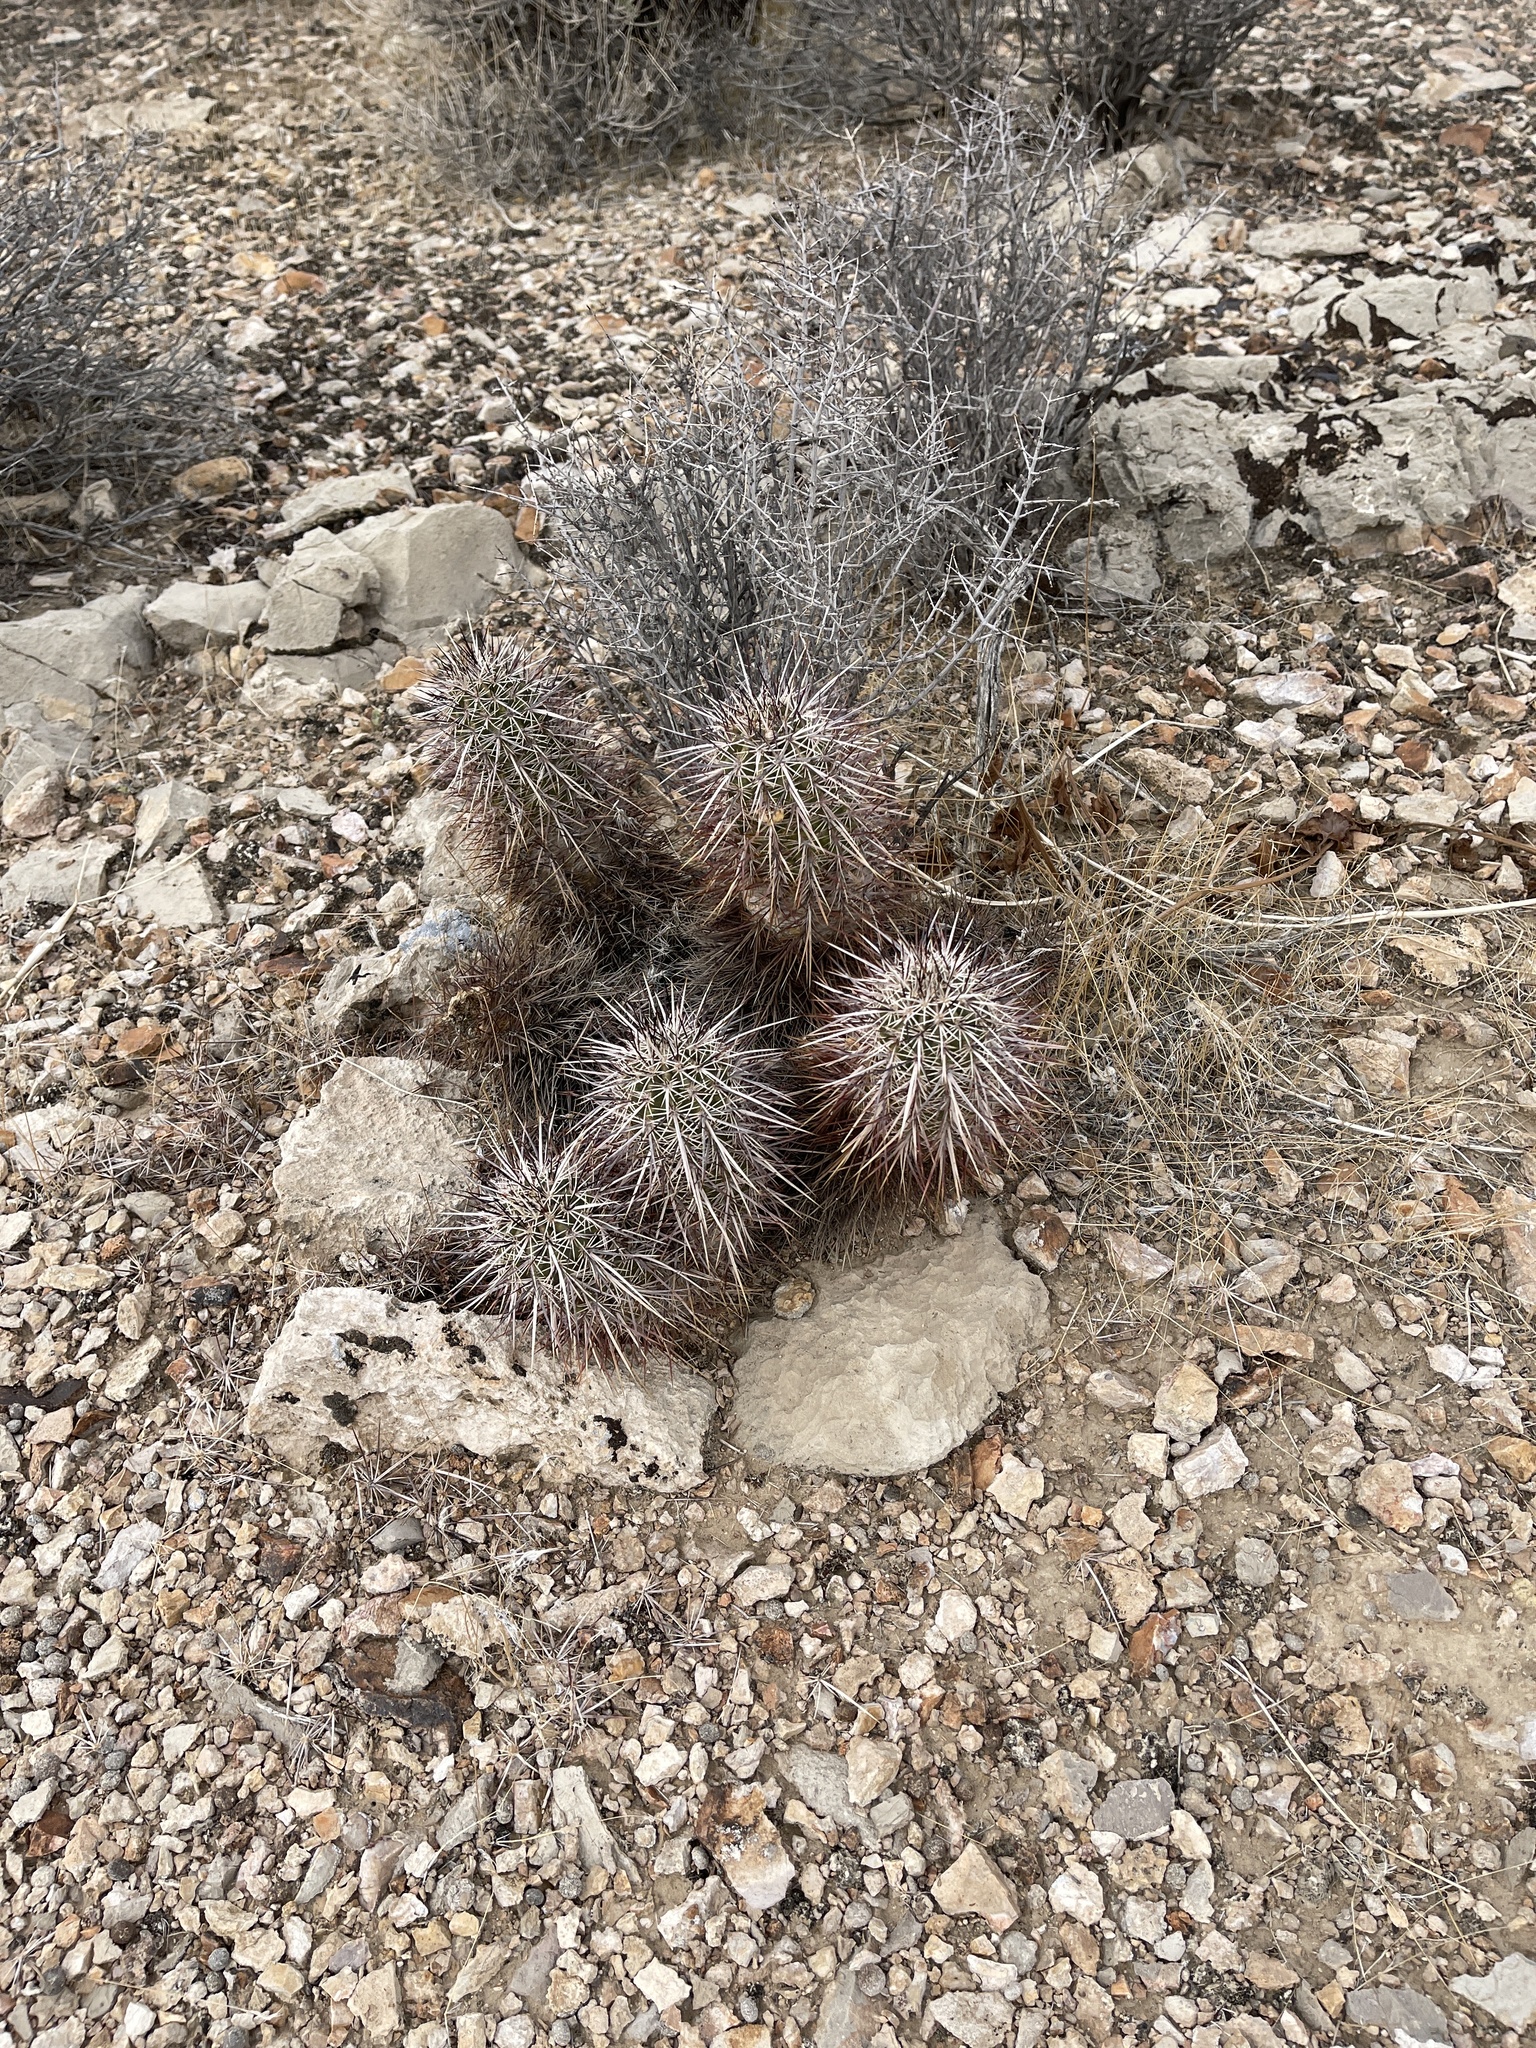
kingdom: Plantae
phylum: Tracheophyta
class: Magnoliopsida
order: Caryophyllales
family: Cactaceae
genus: Echinocactus
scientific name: Echinocactus polycephalus
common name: Cottontop cactus
